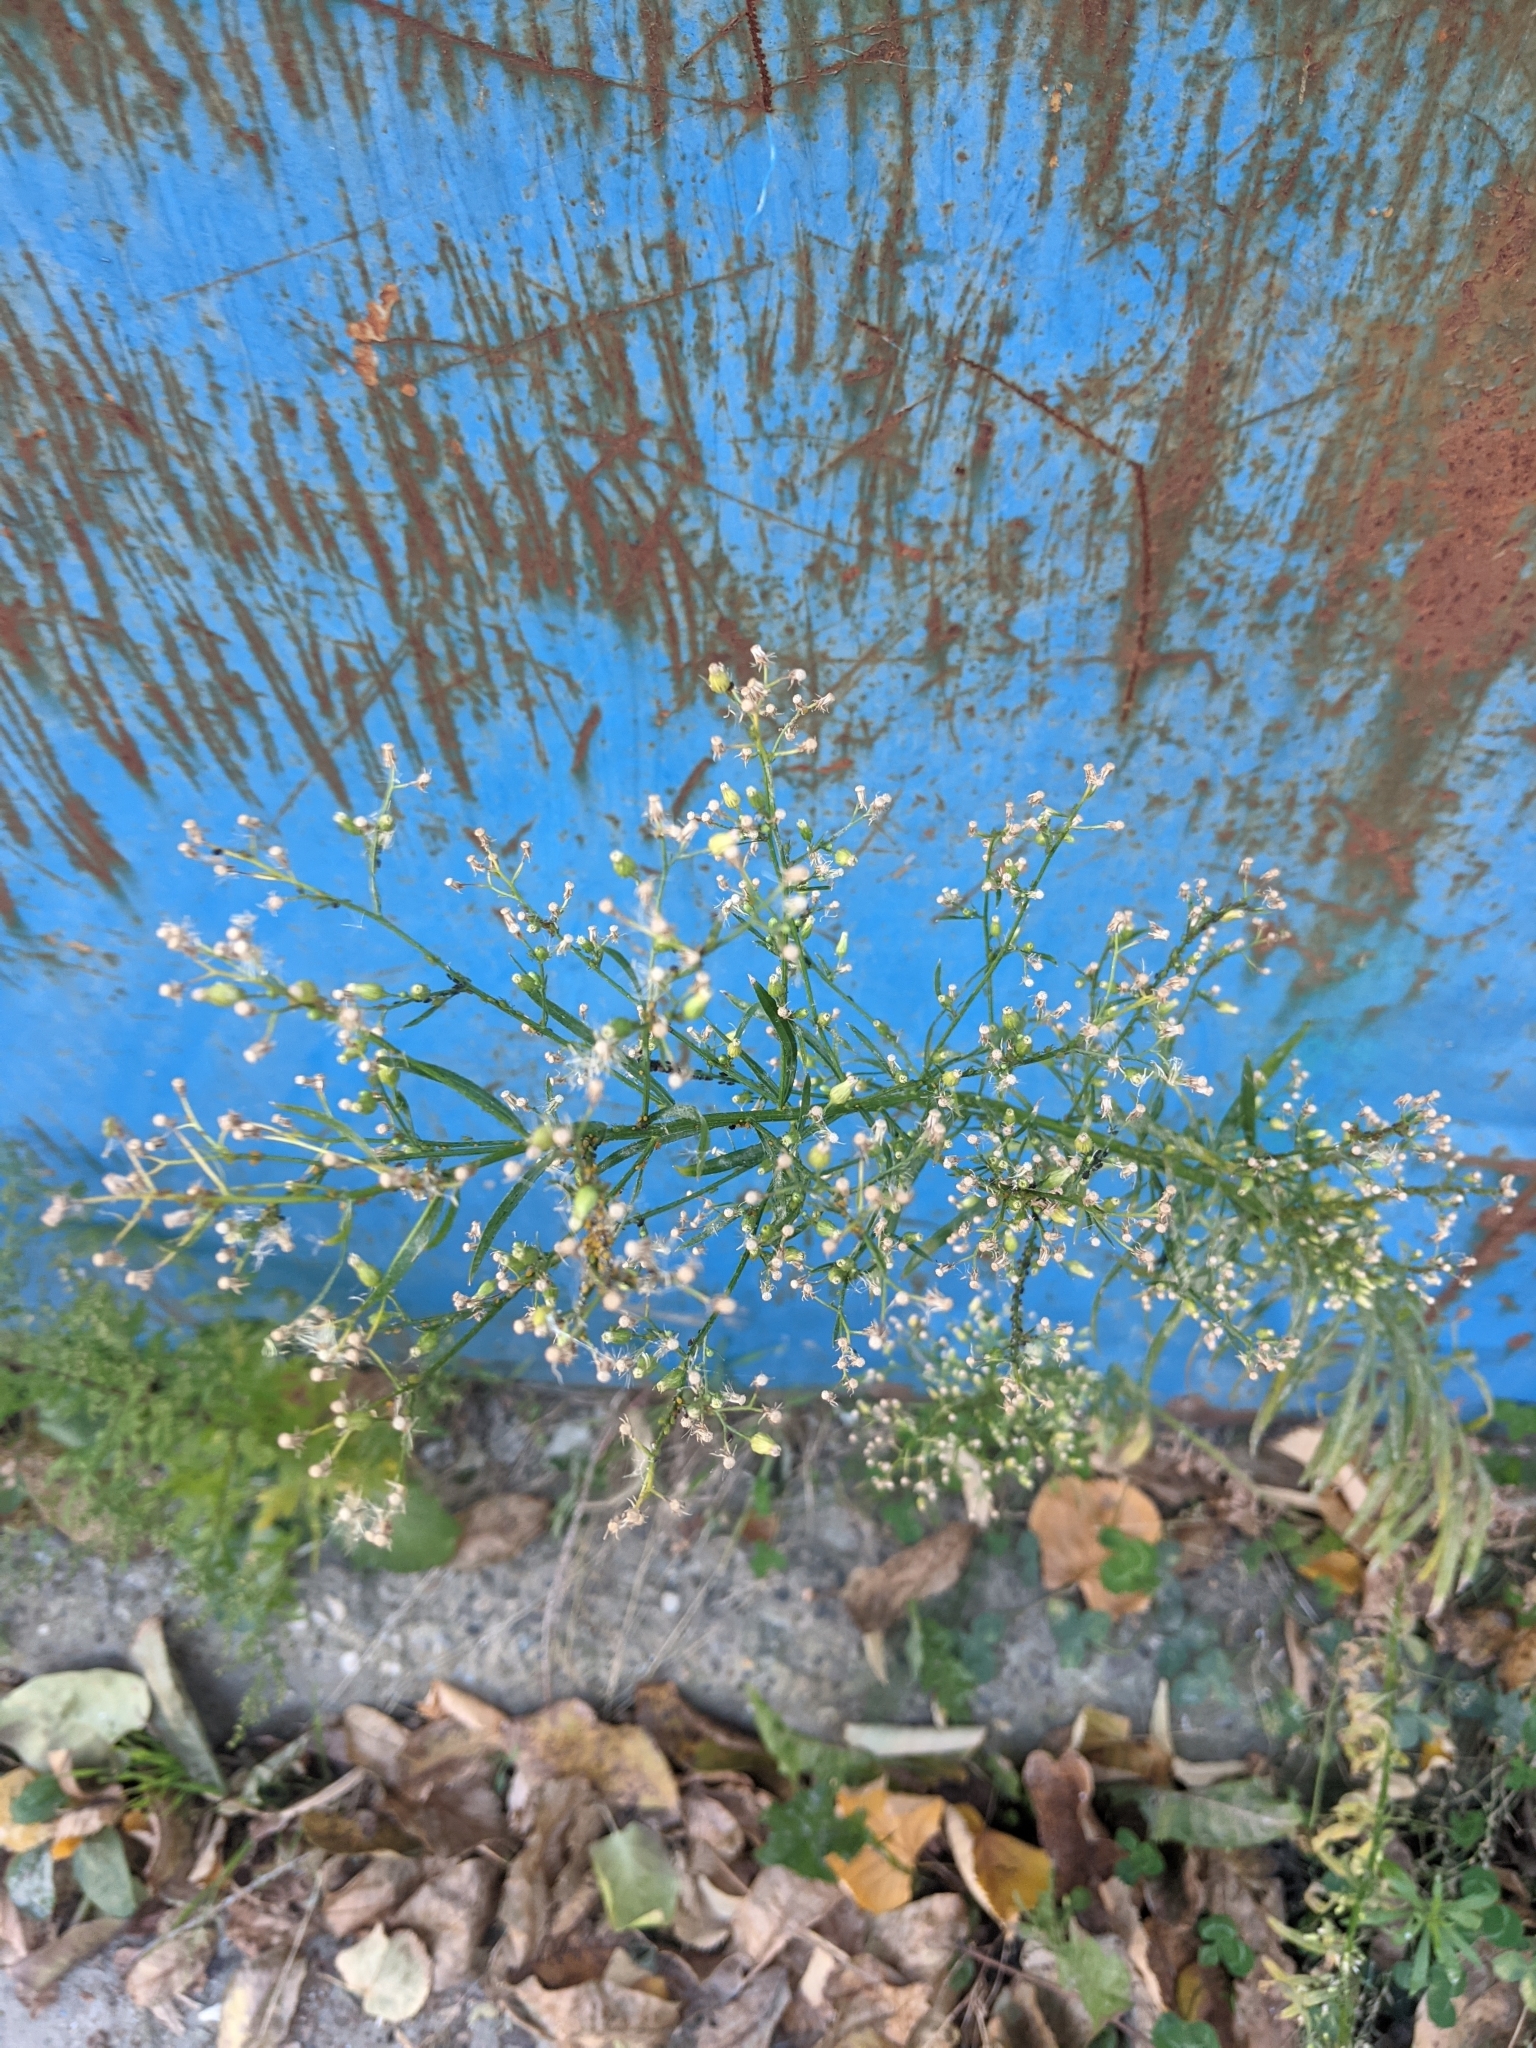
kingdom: Plantae
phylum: Tracheophyta
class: Magnoliopsida
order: Asterales
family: Asteraceae
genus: Erigeron
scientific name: Erigeron canadensis
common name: Canadian fleabane
